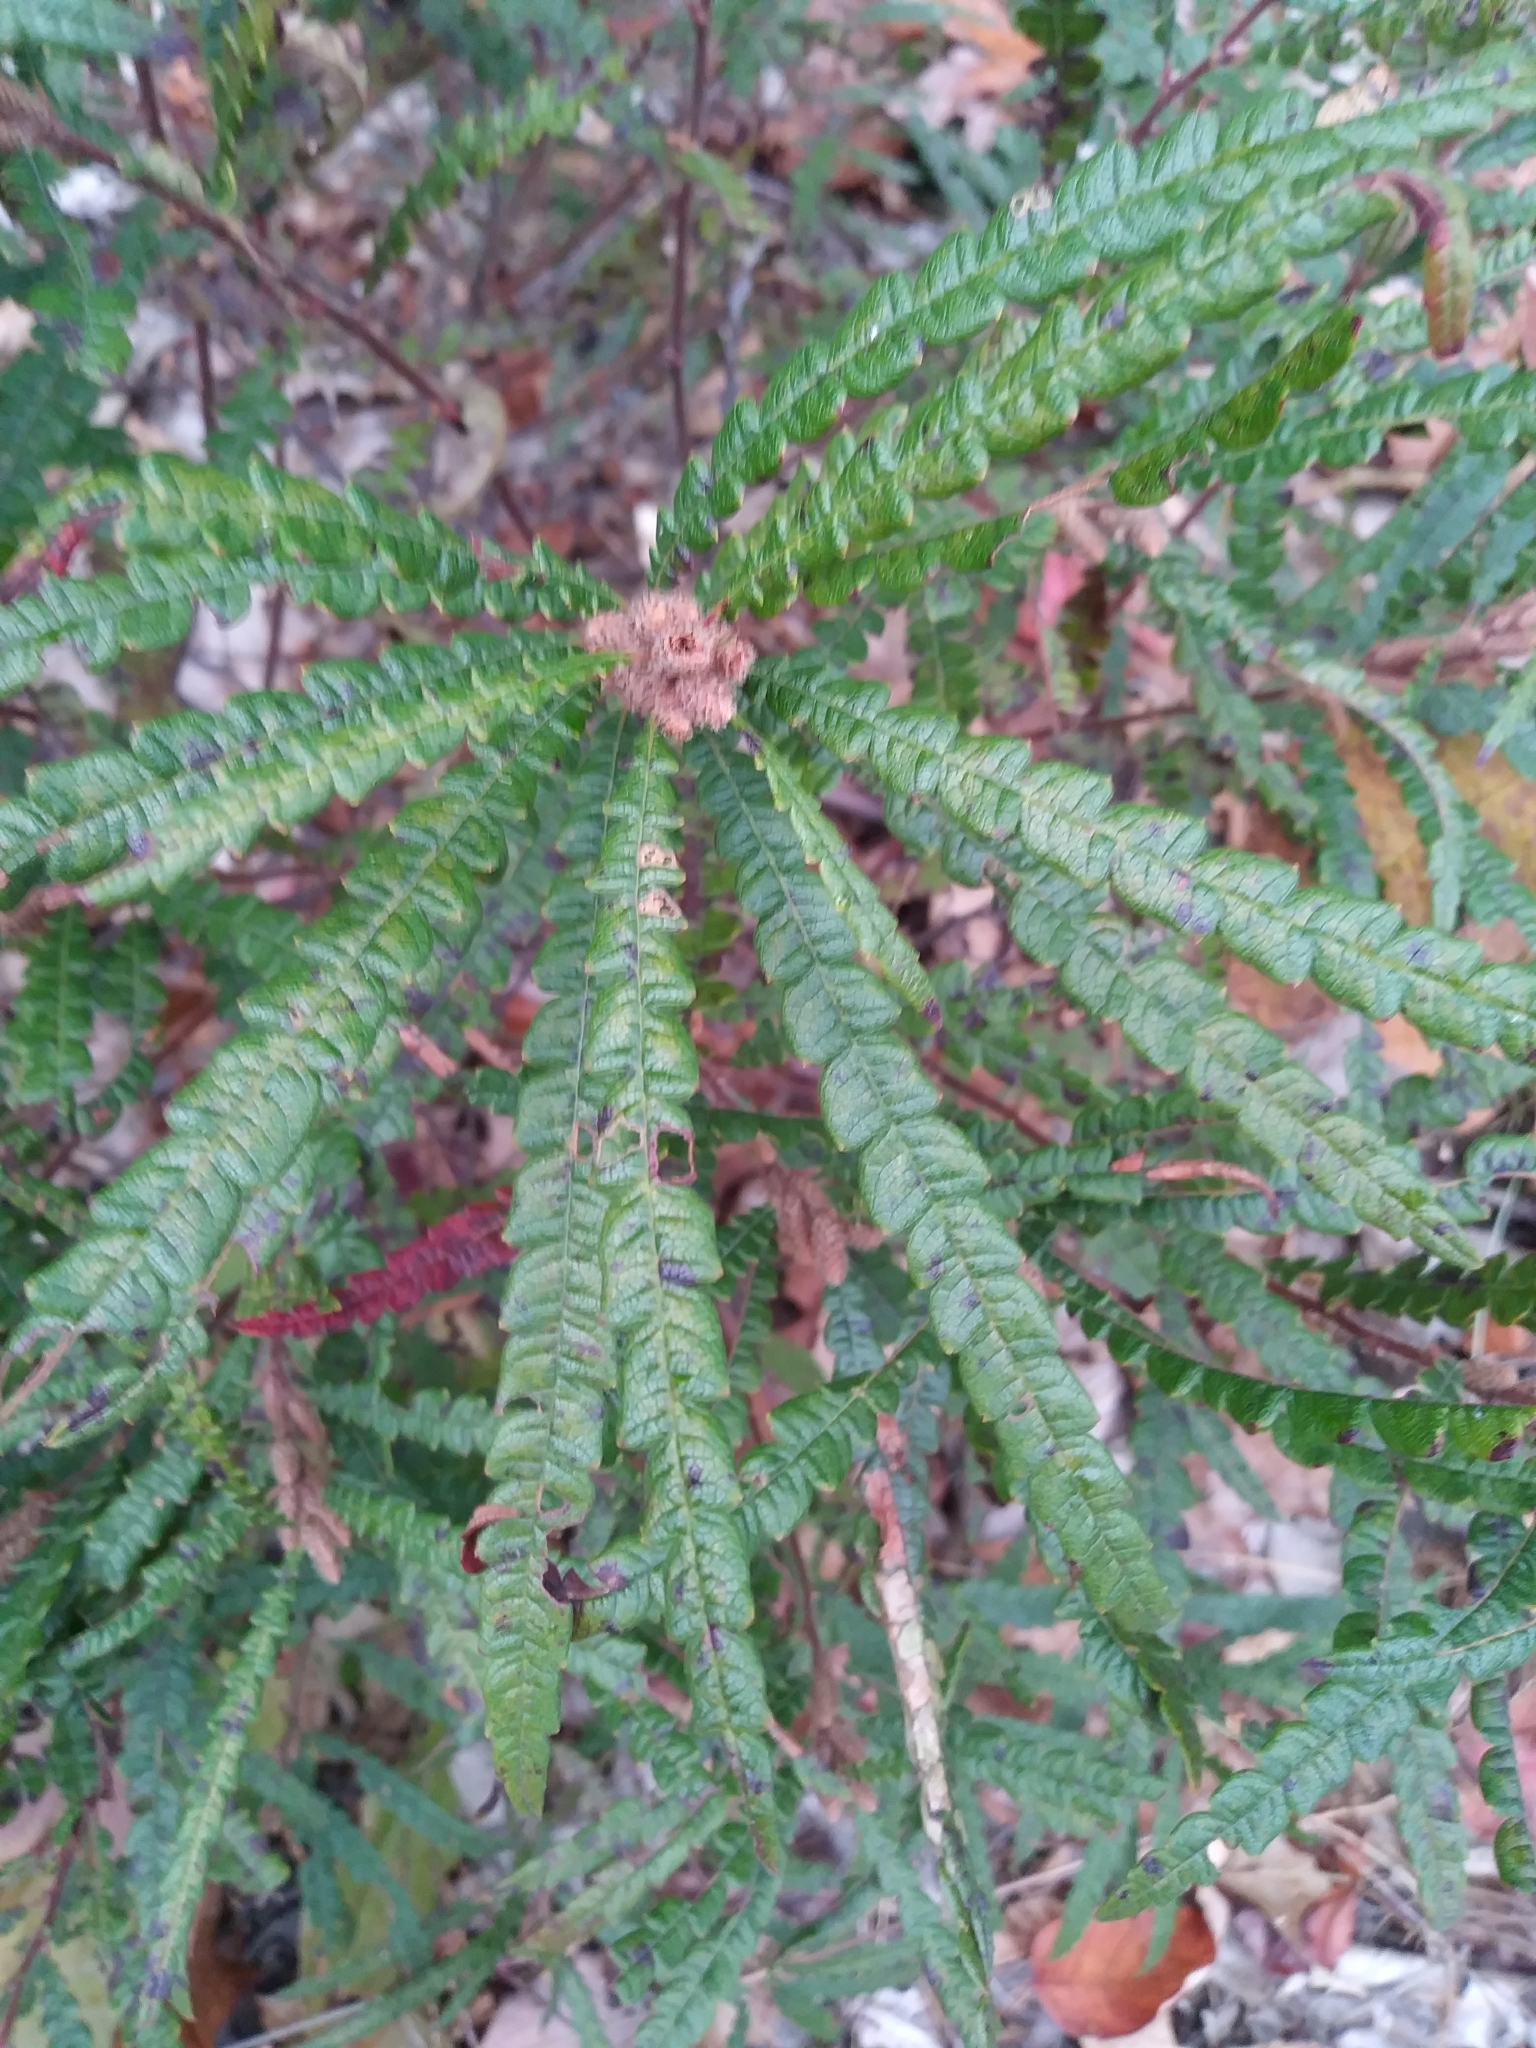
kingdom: Plantae
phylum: Tracheophyta
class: Magnoliopsida
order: Fagales
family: Myricaceae
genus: Comptonia
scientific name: Comptonia peregrina
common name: Sweet-fern
